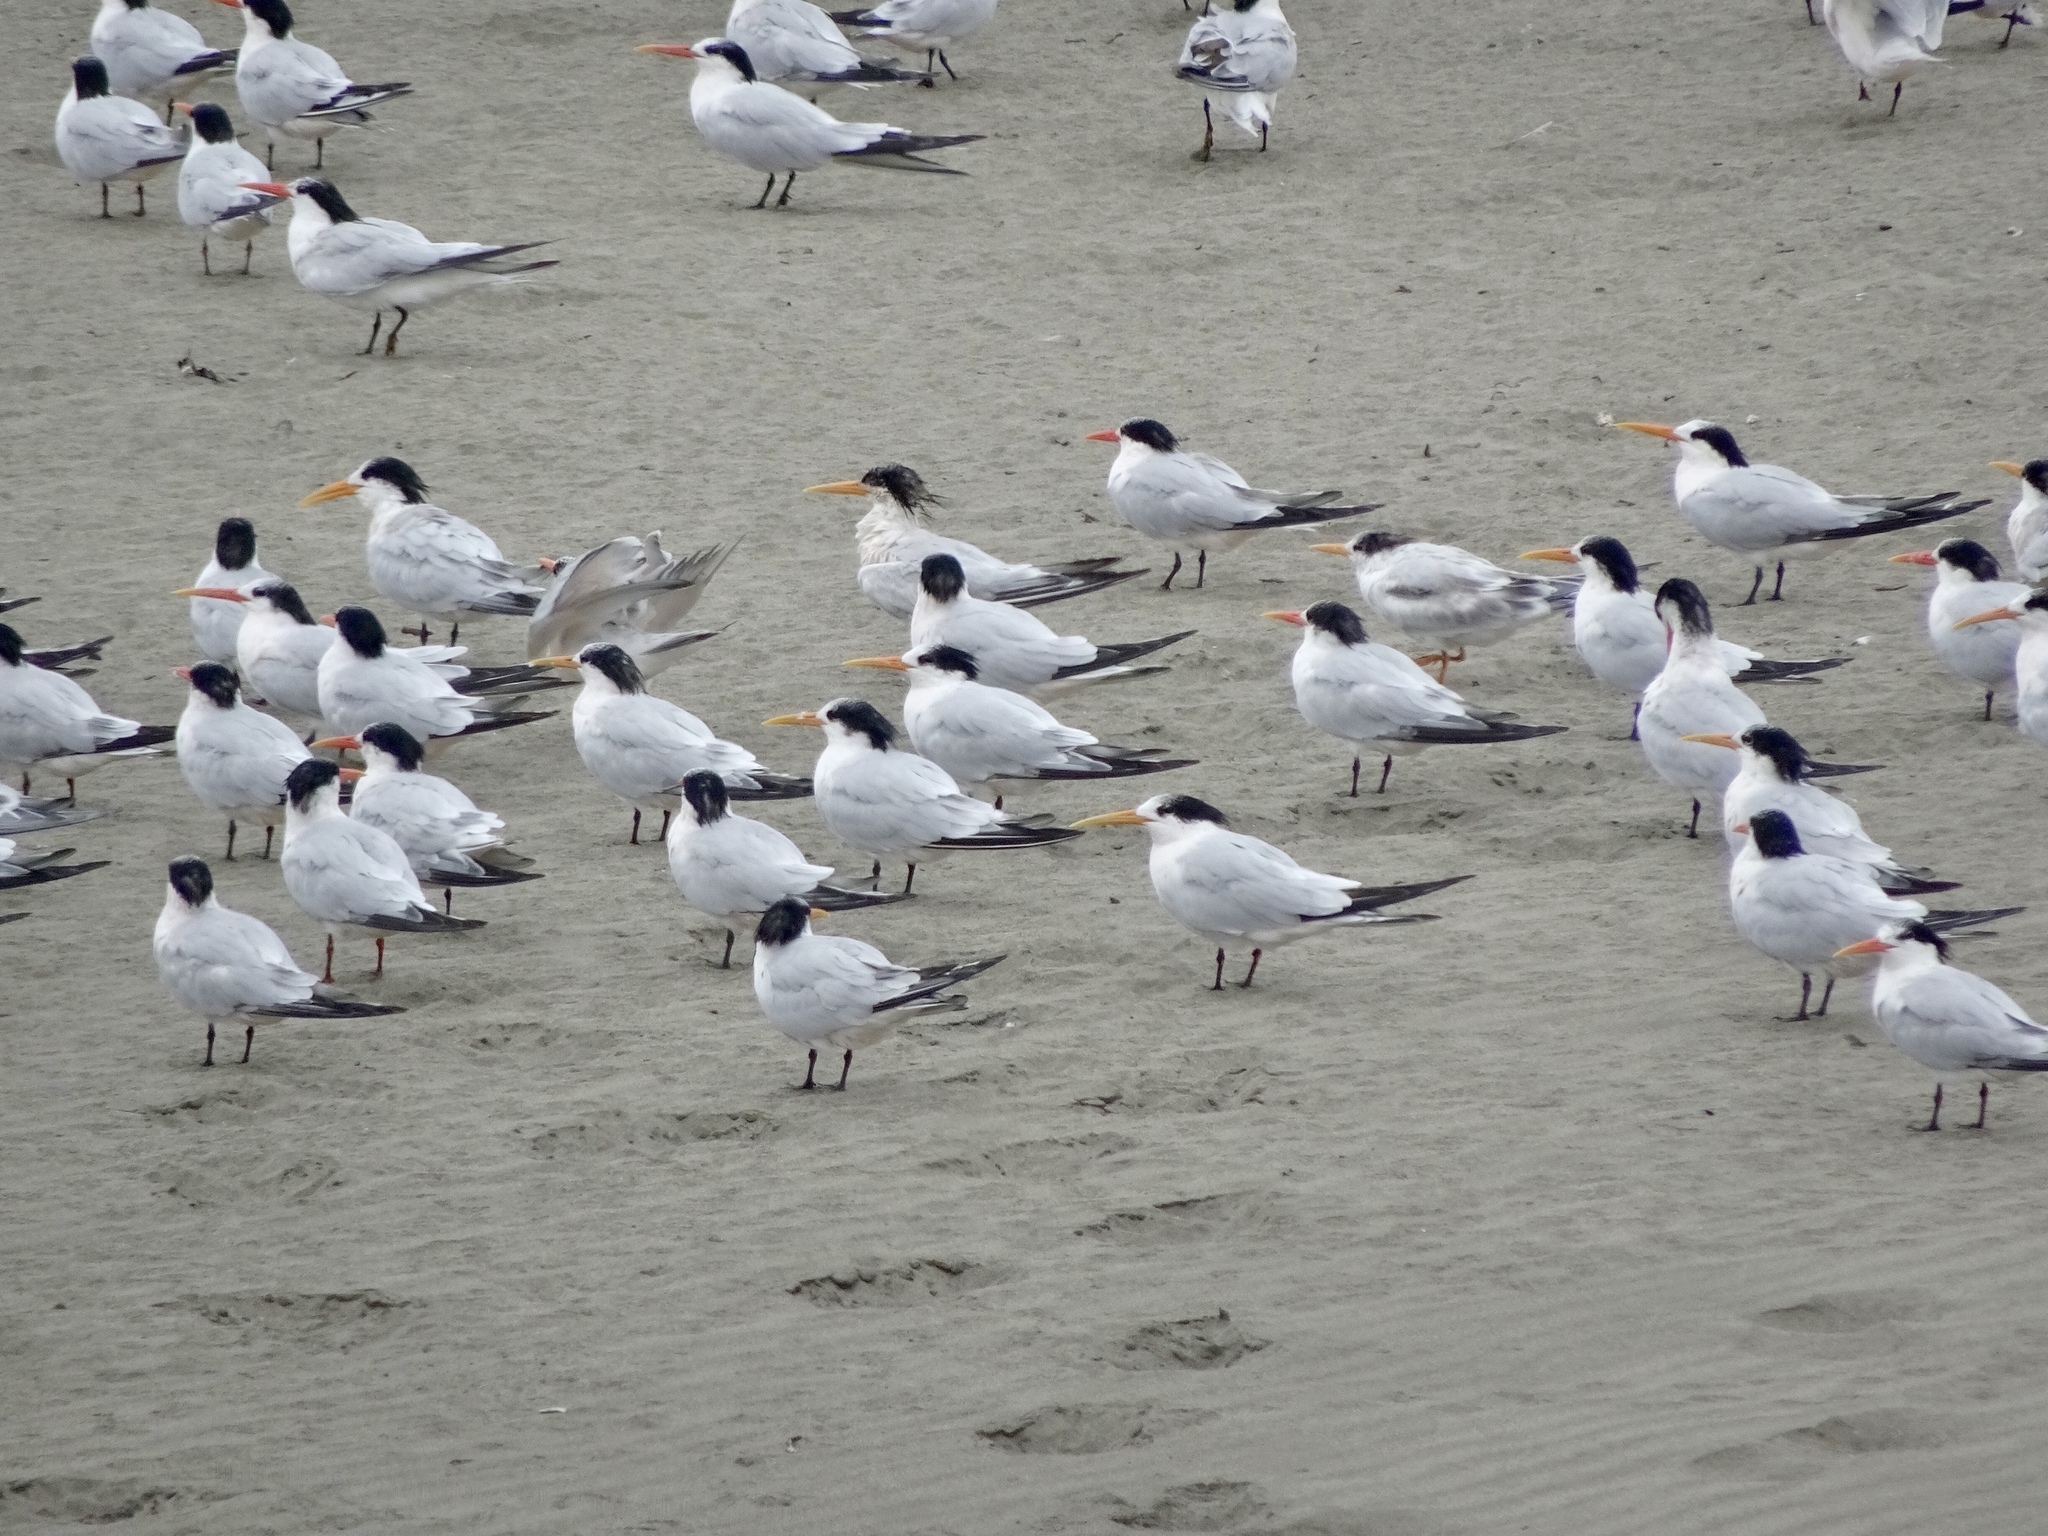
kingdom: Animalia
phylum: Chordata
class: Aves
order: Charadriiformes
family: Laridae
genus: Thalasseus
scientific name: Thalasseus elegans
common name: Elegant tern
